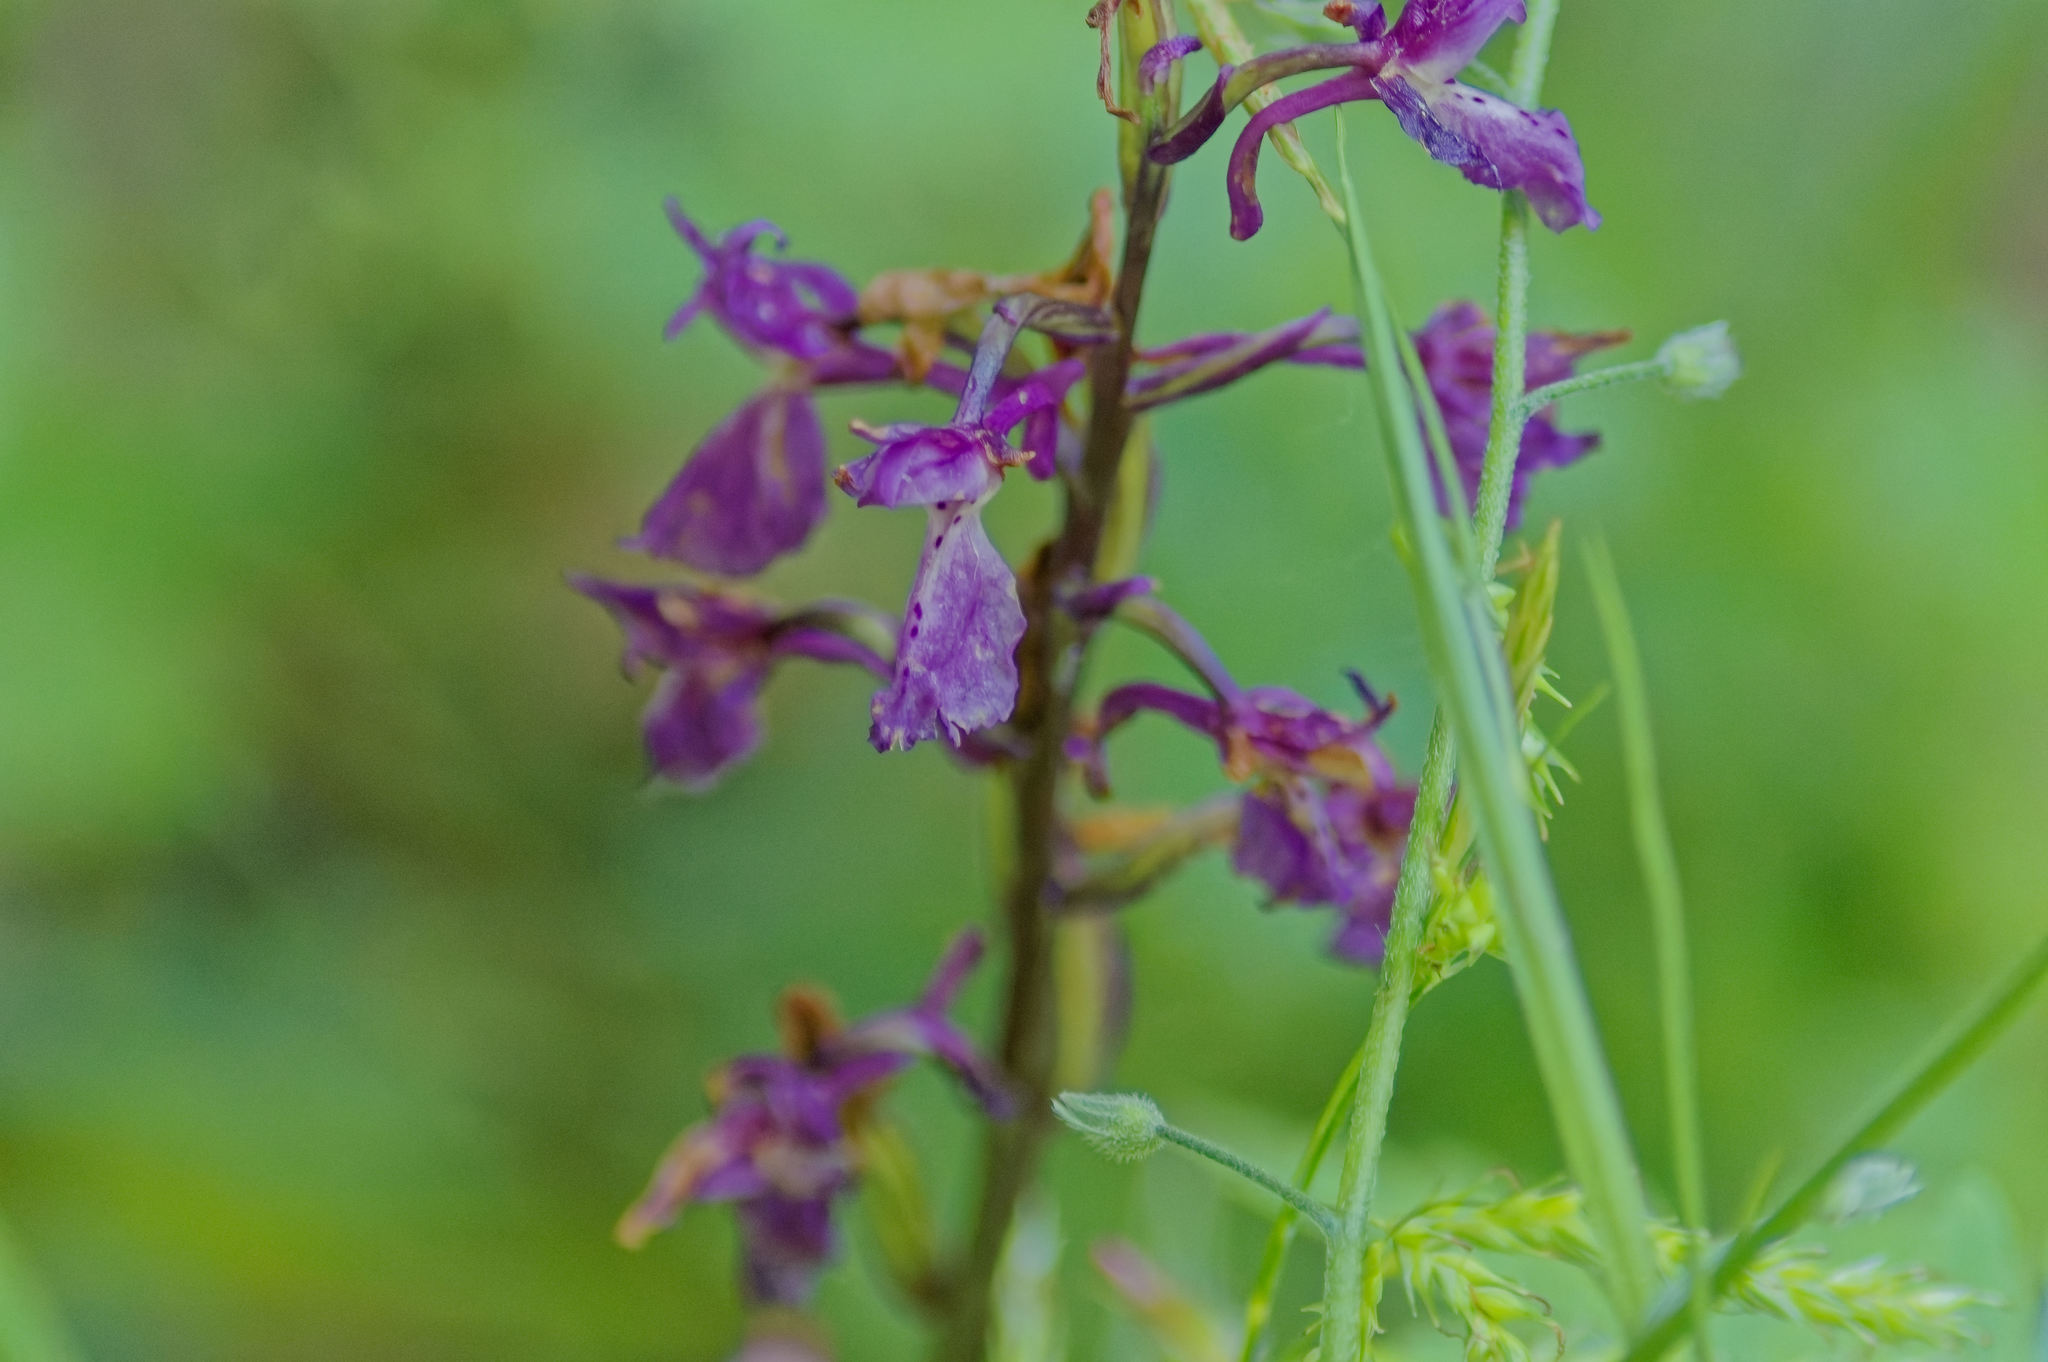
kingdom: Plantae
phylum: Tracheophyta
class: Liliopsida
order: Asparagales
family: Orchidaceae
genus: Orchis
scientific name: Orchis mascula
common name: Early-purple orchid
